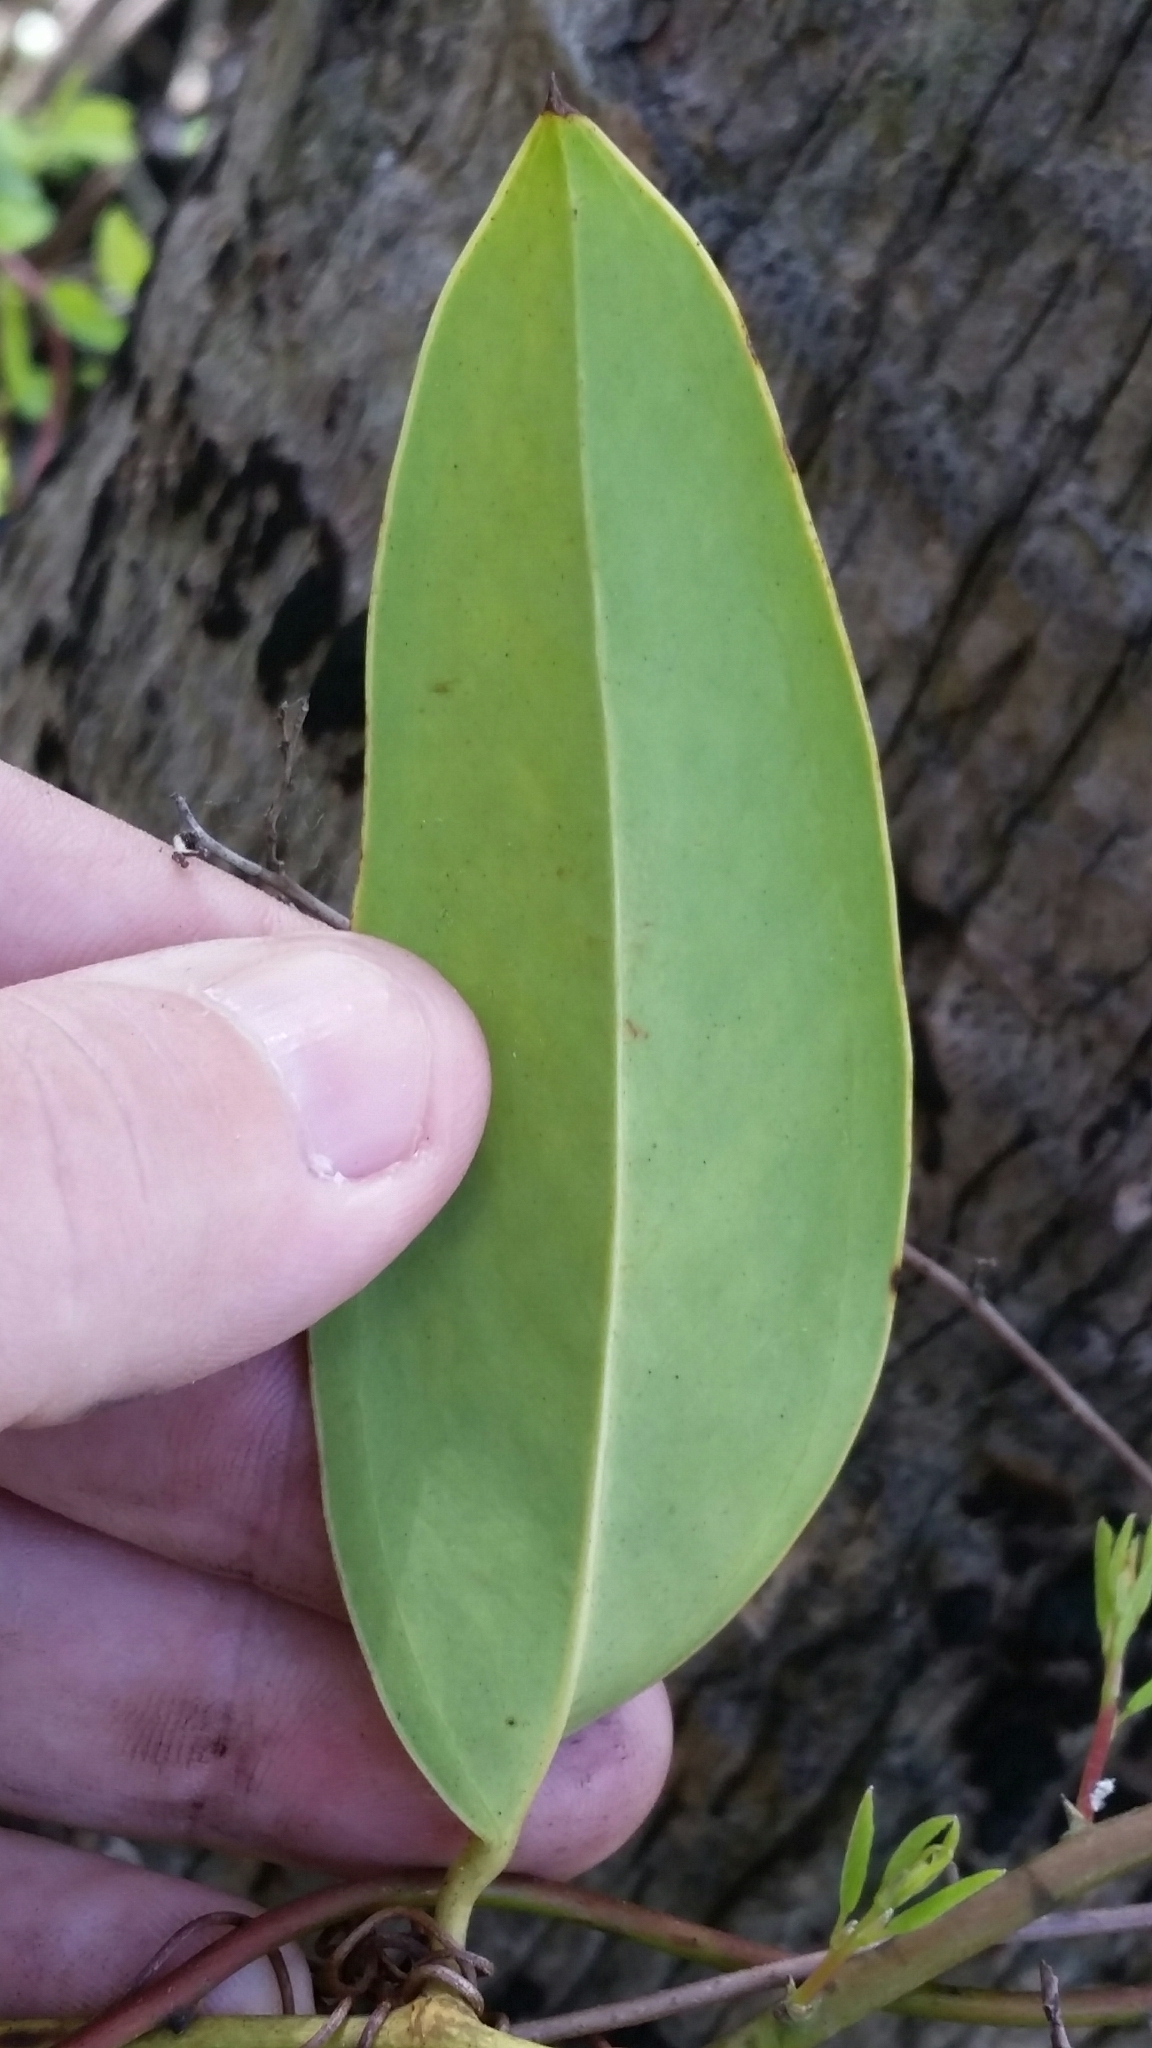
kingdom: Plantae
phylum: Tracheophyta
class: Liliopsida
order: Liliales
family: Smilacaceae
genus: Smilax
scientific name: Smilax laurifolia
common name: Bamboovine
